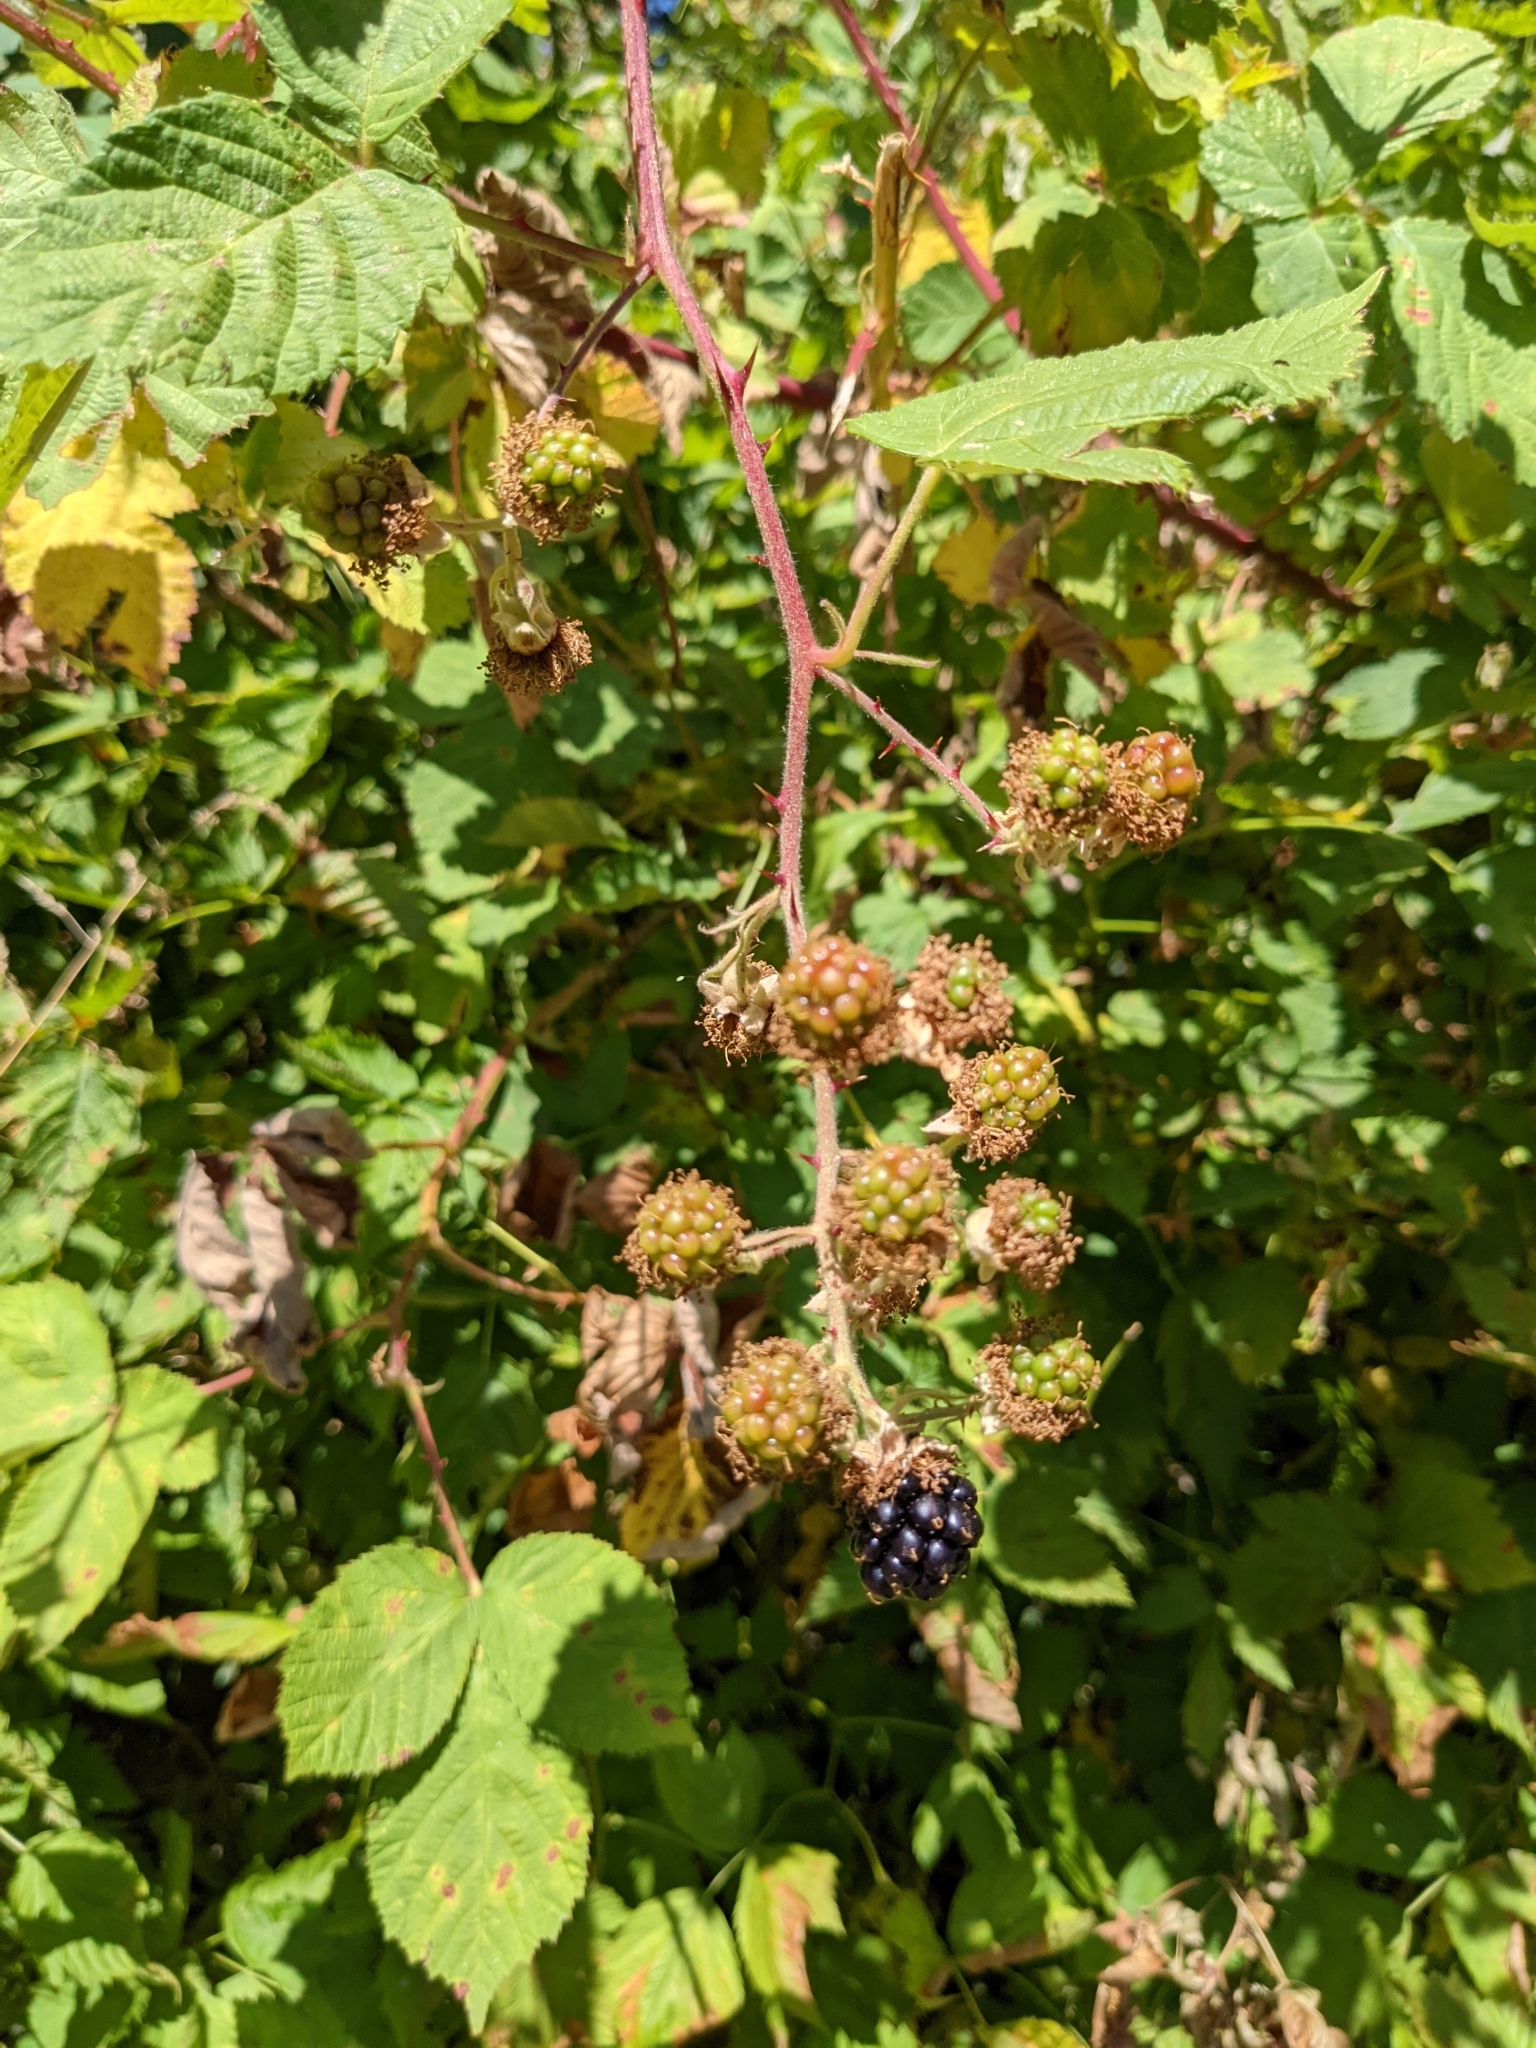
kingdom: Plantae
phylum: Tracheophyta
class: Magnoliopsida
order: Rosales
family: Rosaceae
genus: Rubus
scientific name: Rubus bifrons
